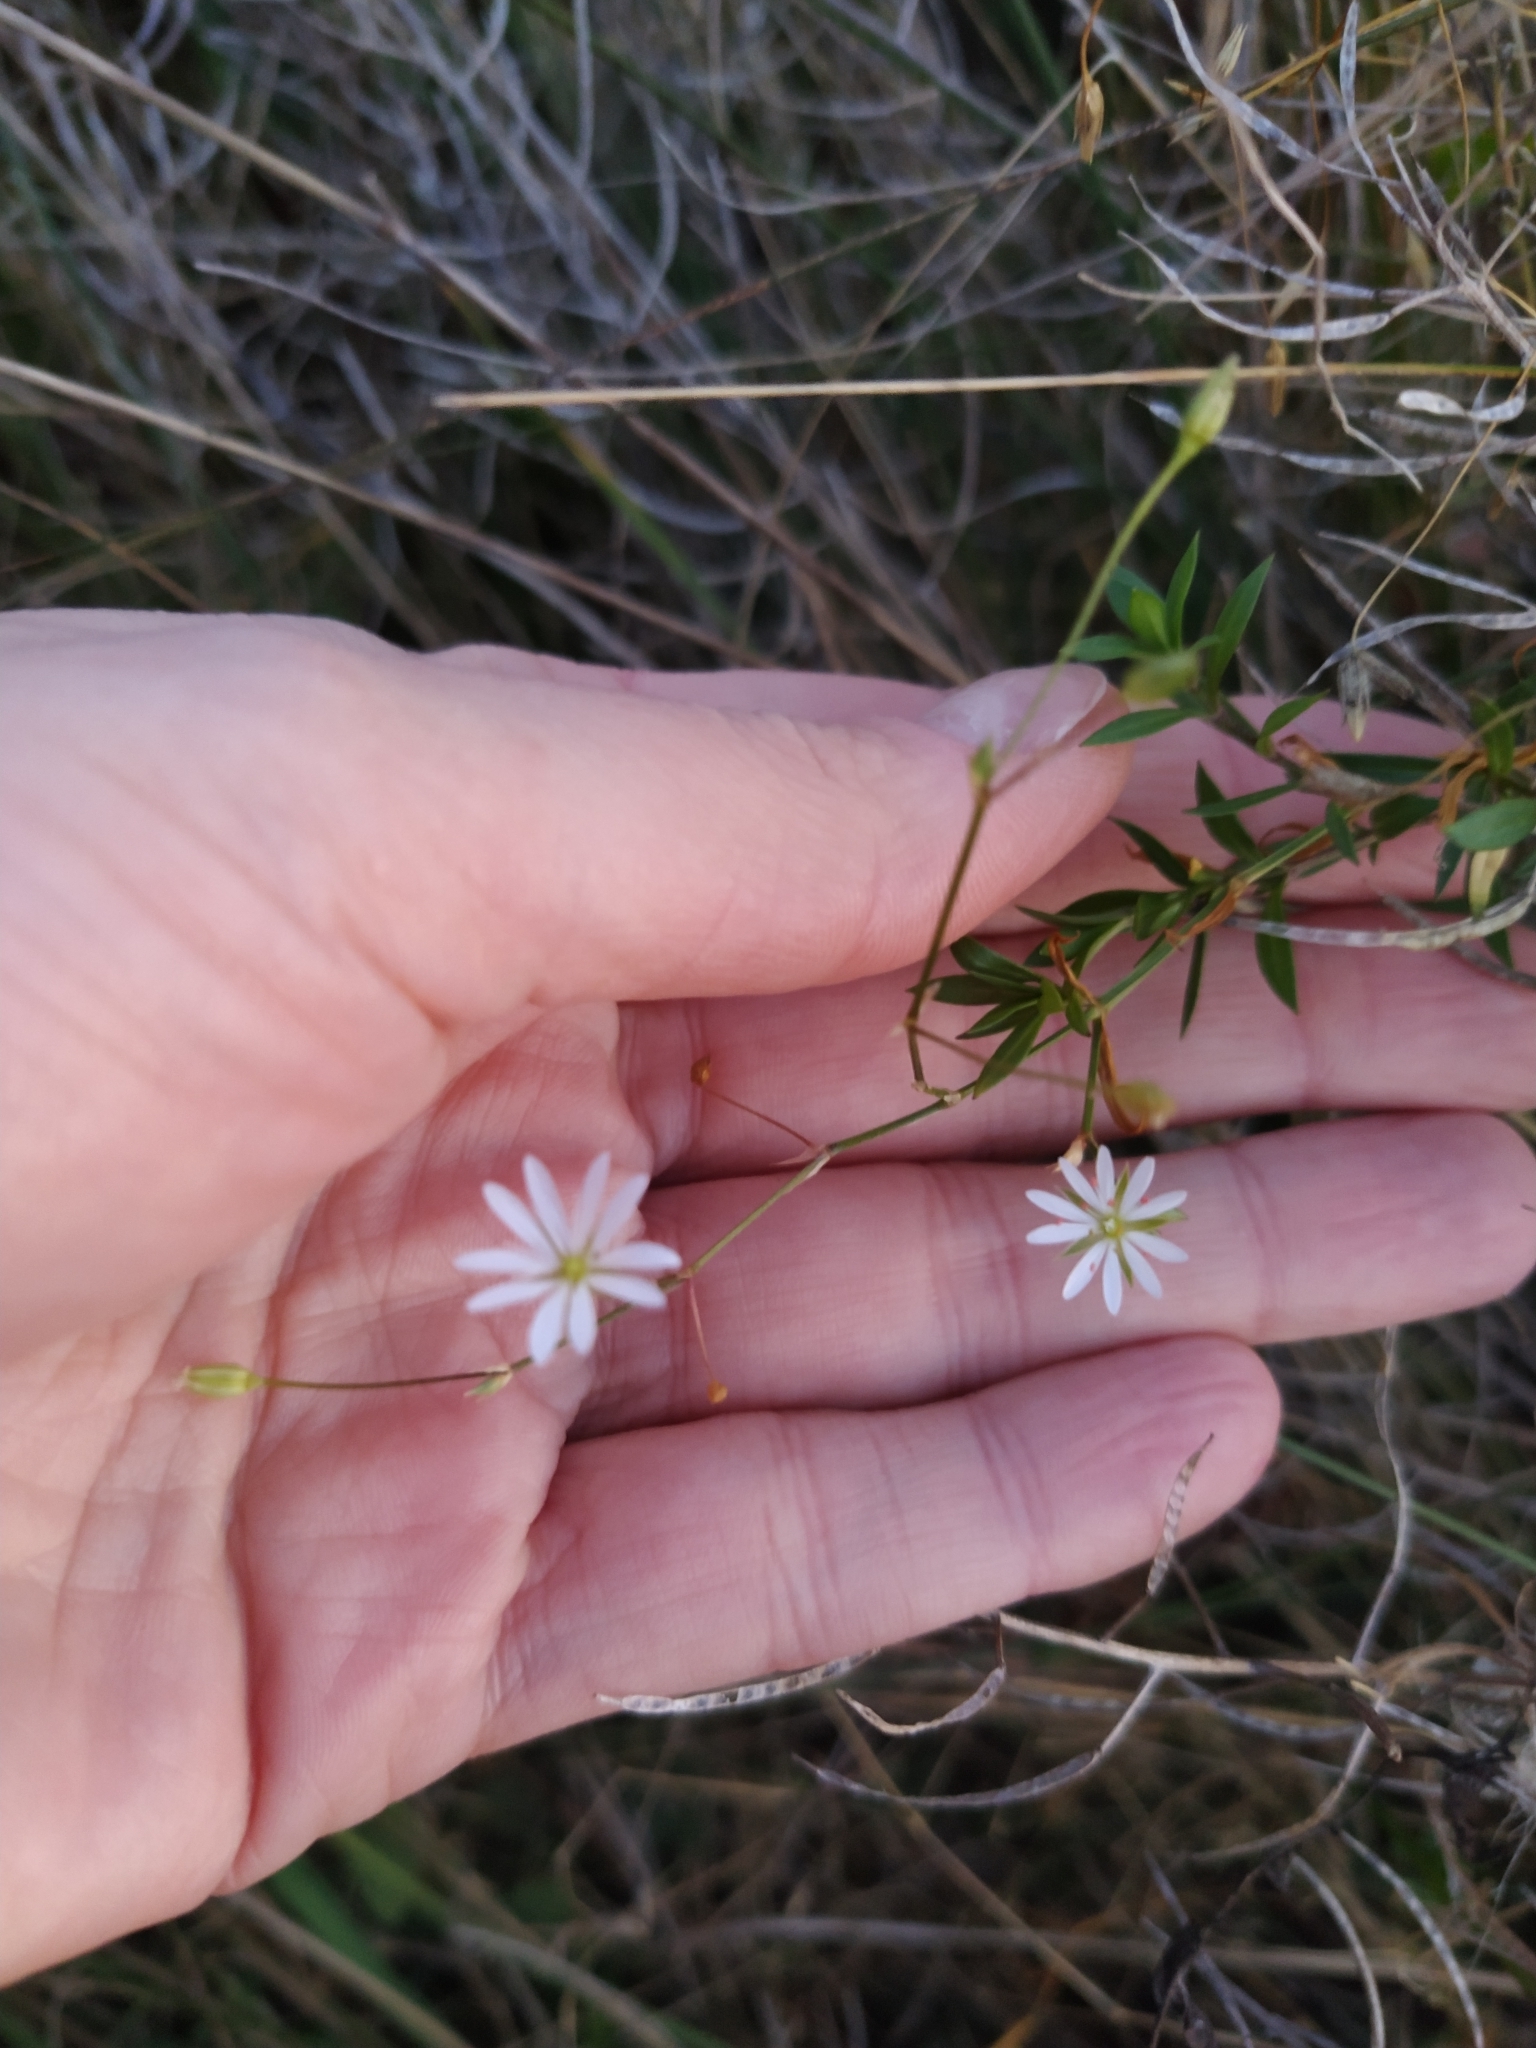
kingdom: Plantae
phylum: Tracheophyta
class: Magnoliopsida
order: Caryophyllales
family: Caryophyllaceae
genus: Stellaria
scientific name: Stellaria graminea
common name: Grass-like starwort
